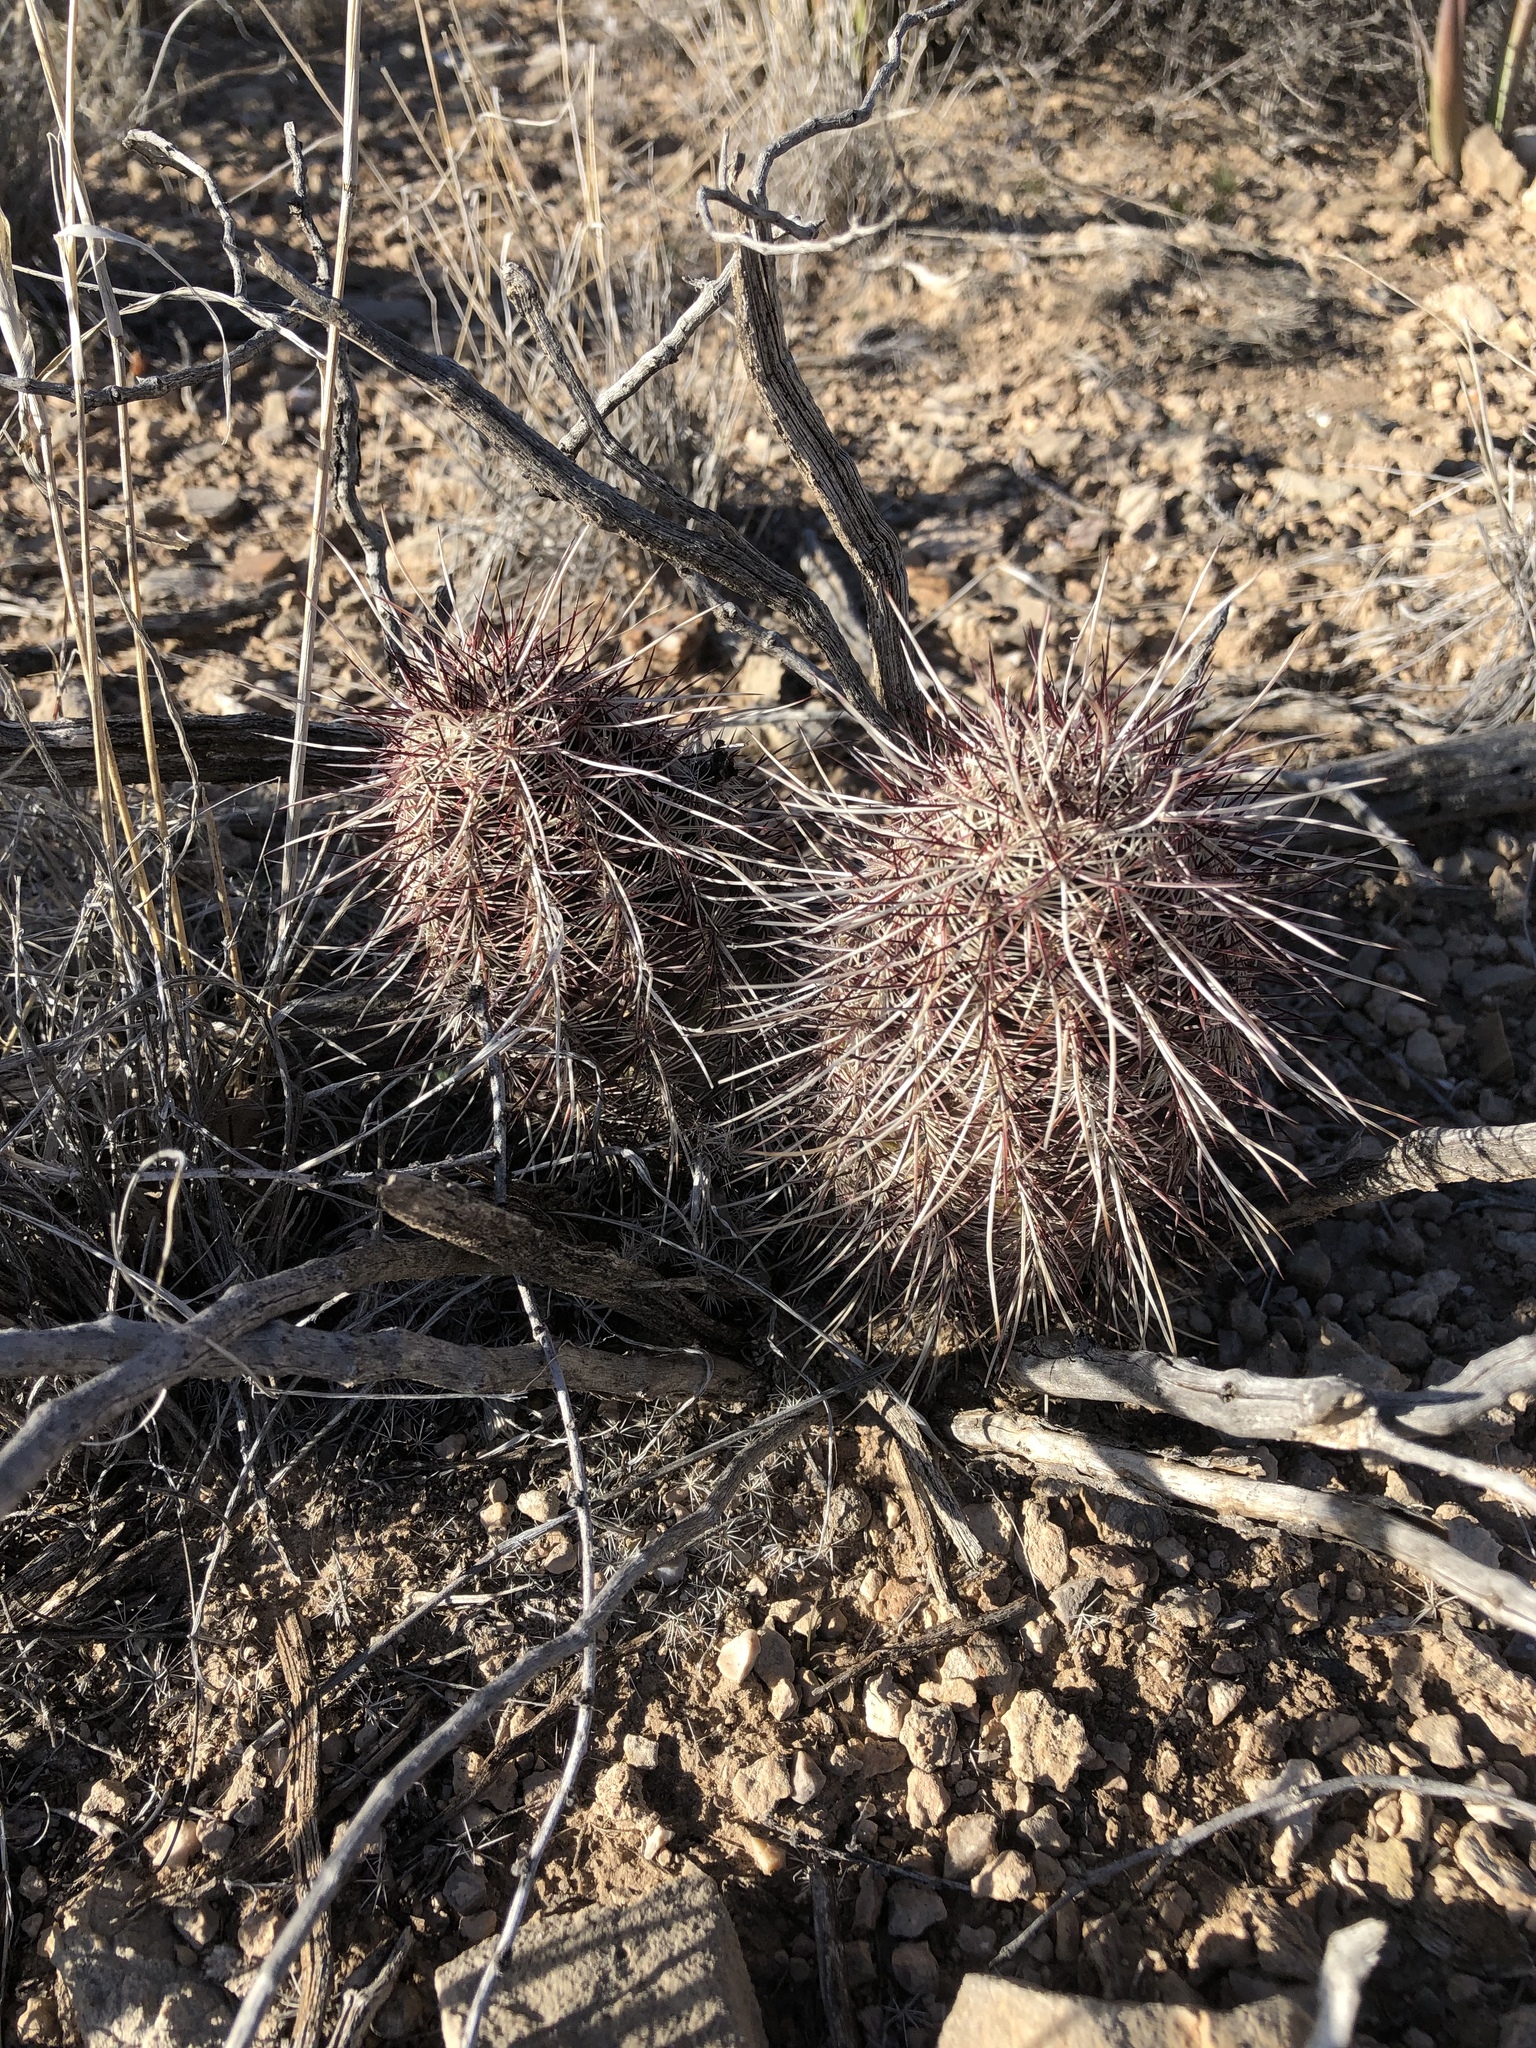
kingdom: Plantae
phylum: Tracheophyta
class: Magnoliopsida
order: Caryophyllales
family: Cactaceae
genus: Echinocereus
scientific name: Echinocereus viridiflorus
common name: Nylon hedgehog cactus
